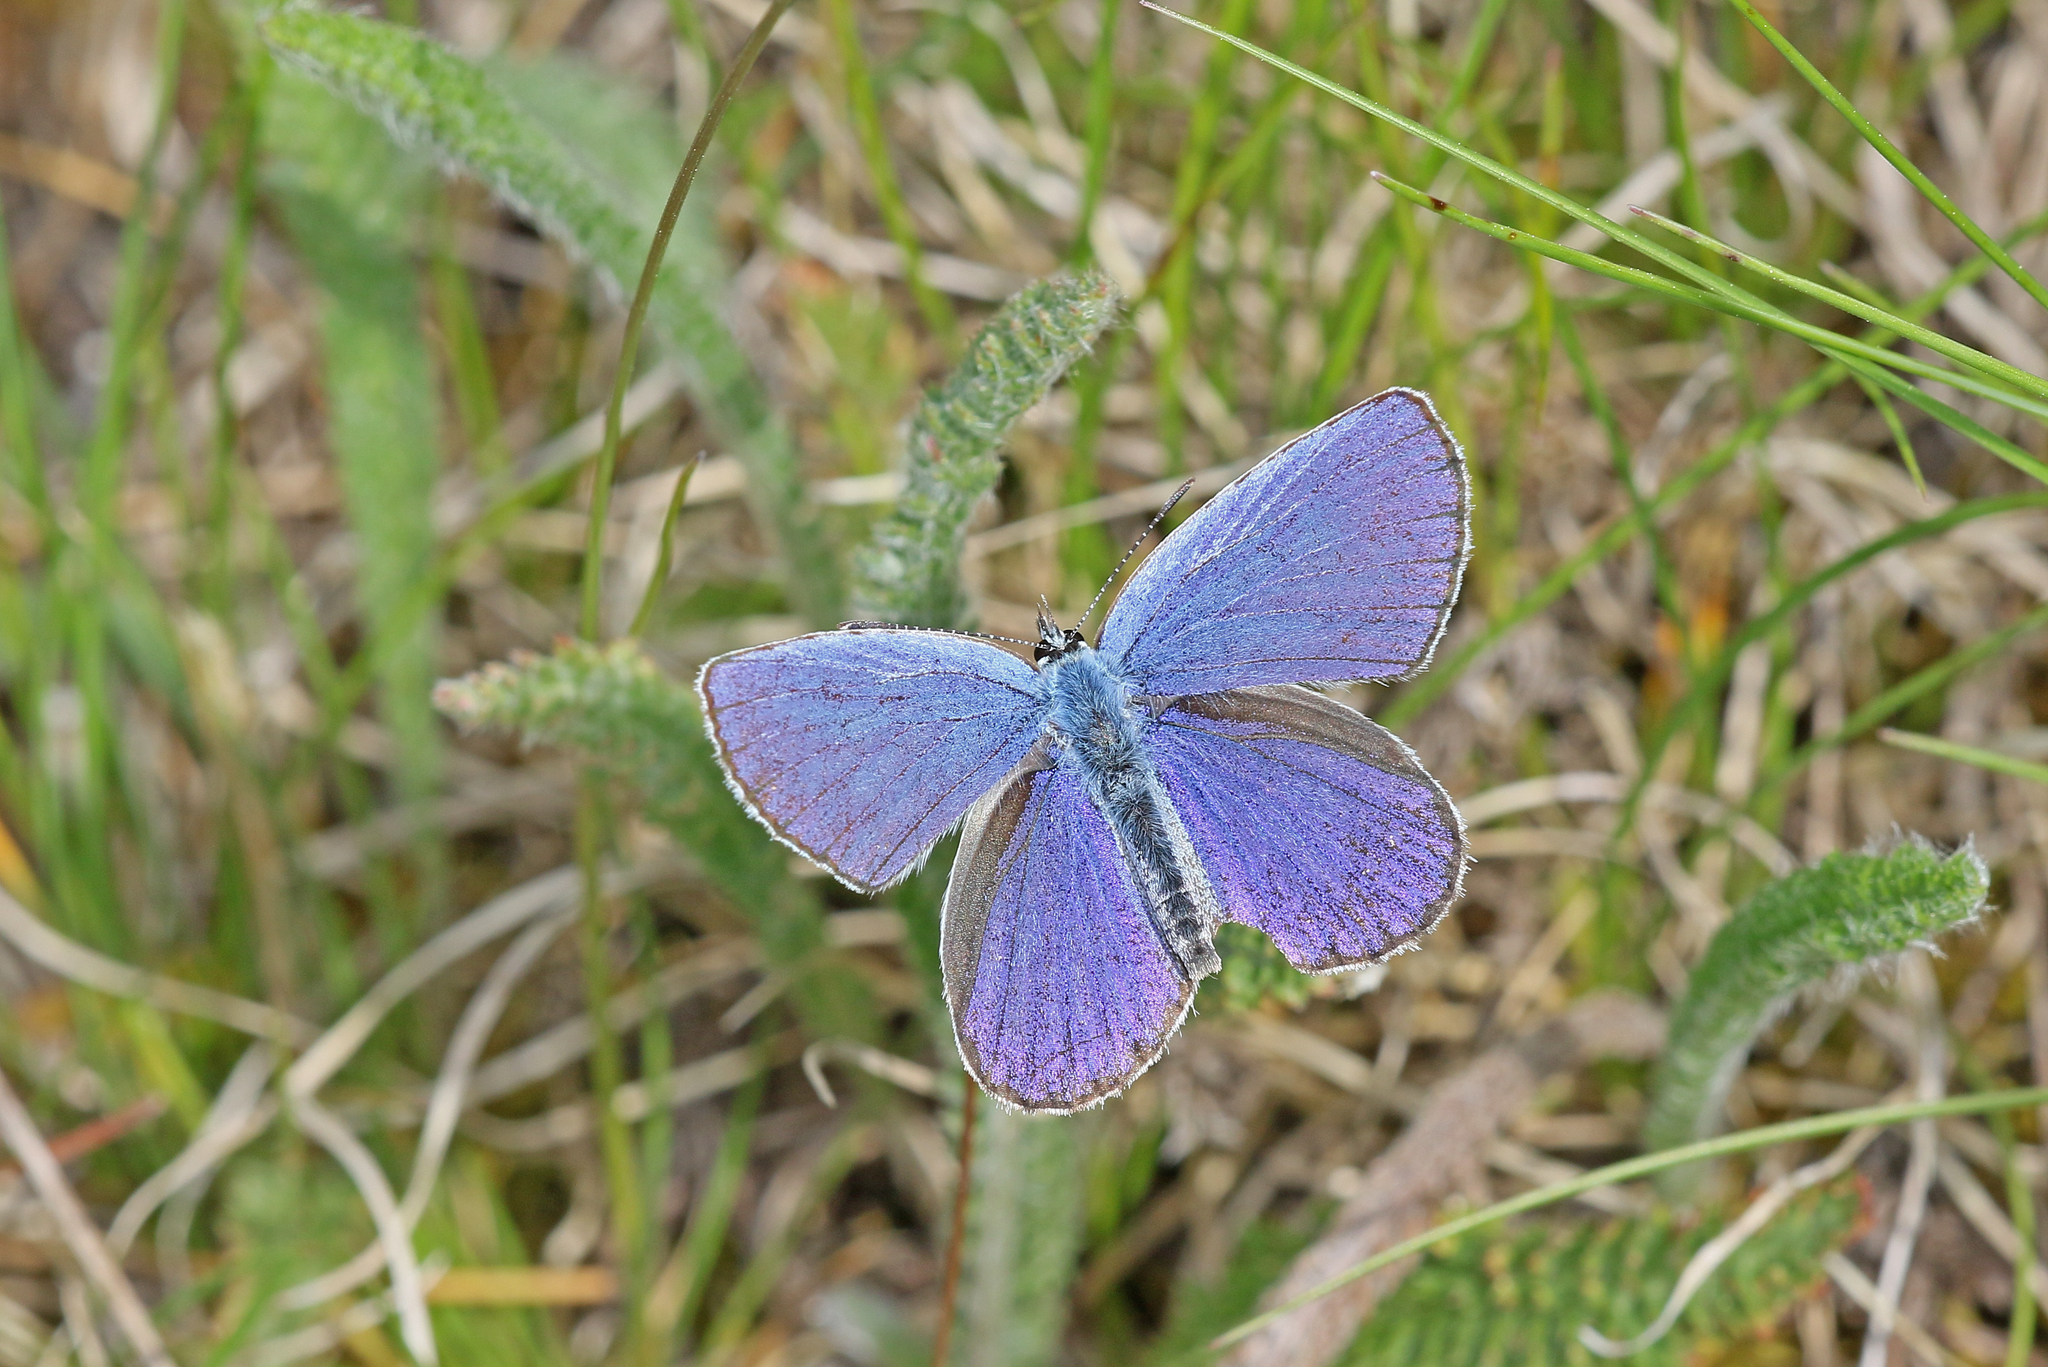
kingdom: Animalia
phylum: Arthropoda
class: Insecta
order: Lepidoptera
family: Lycaenidae
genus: Lysandra
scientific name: Lysandra bellargus
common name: Adonis blue
